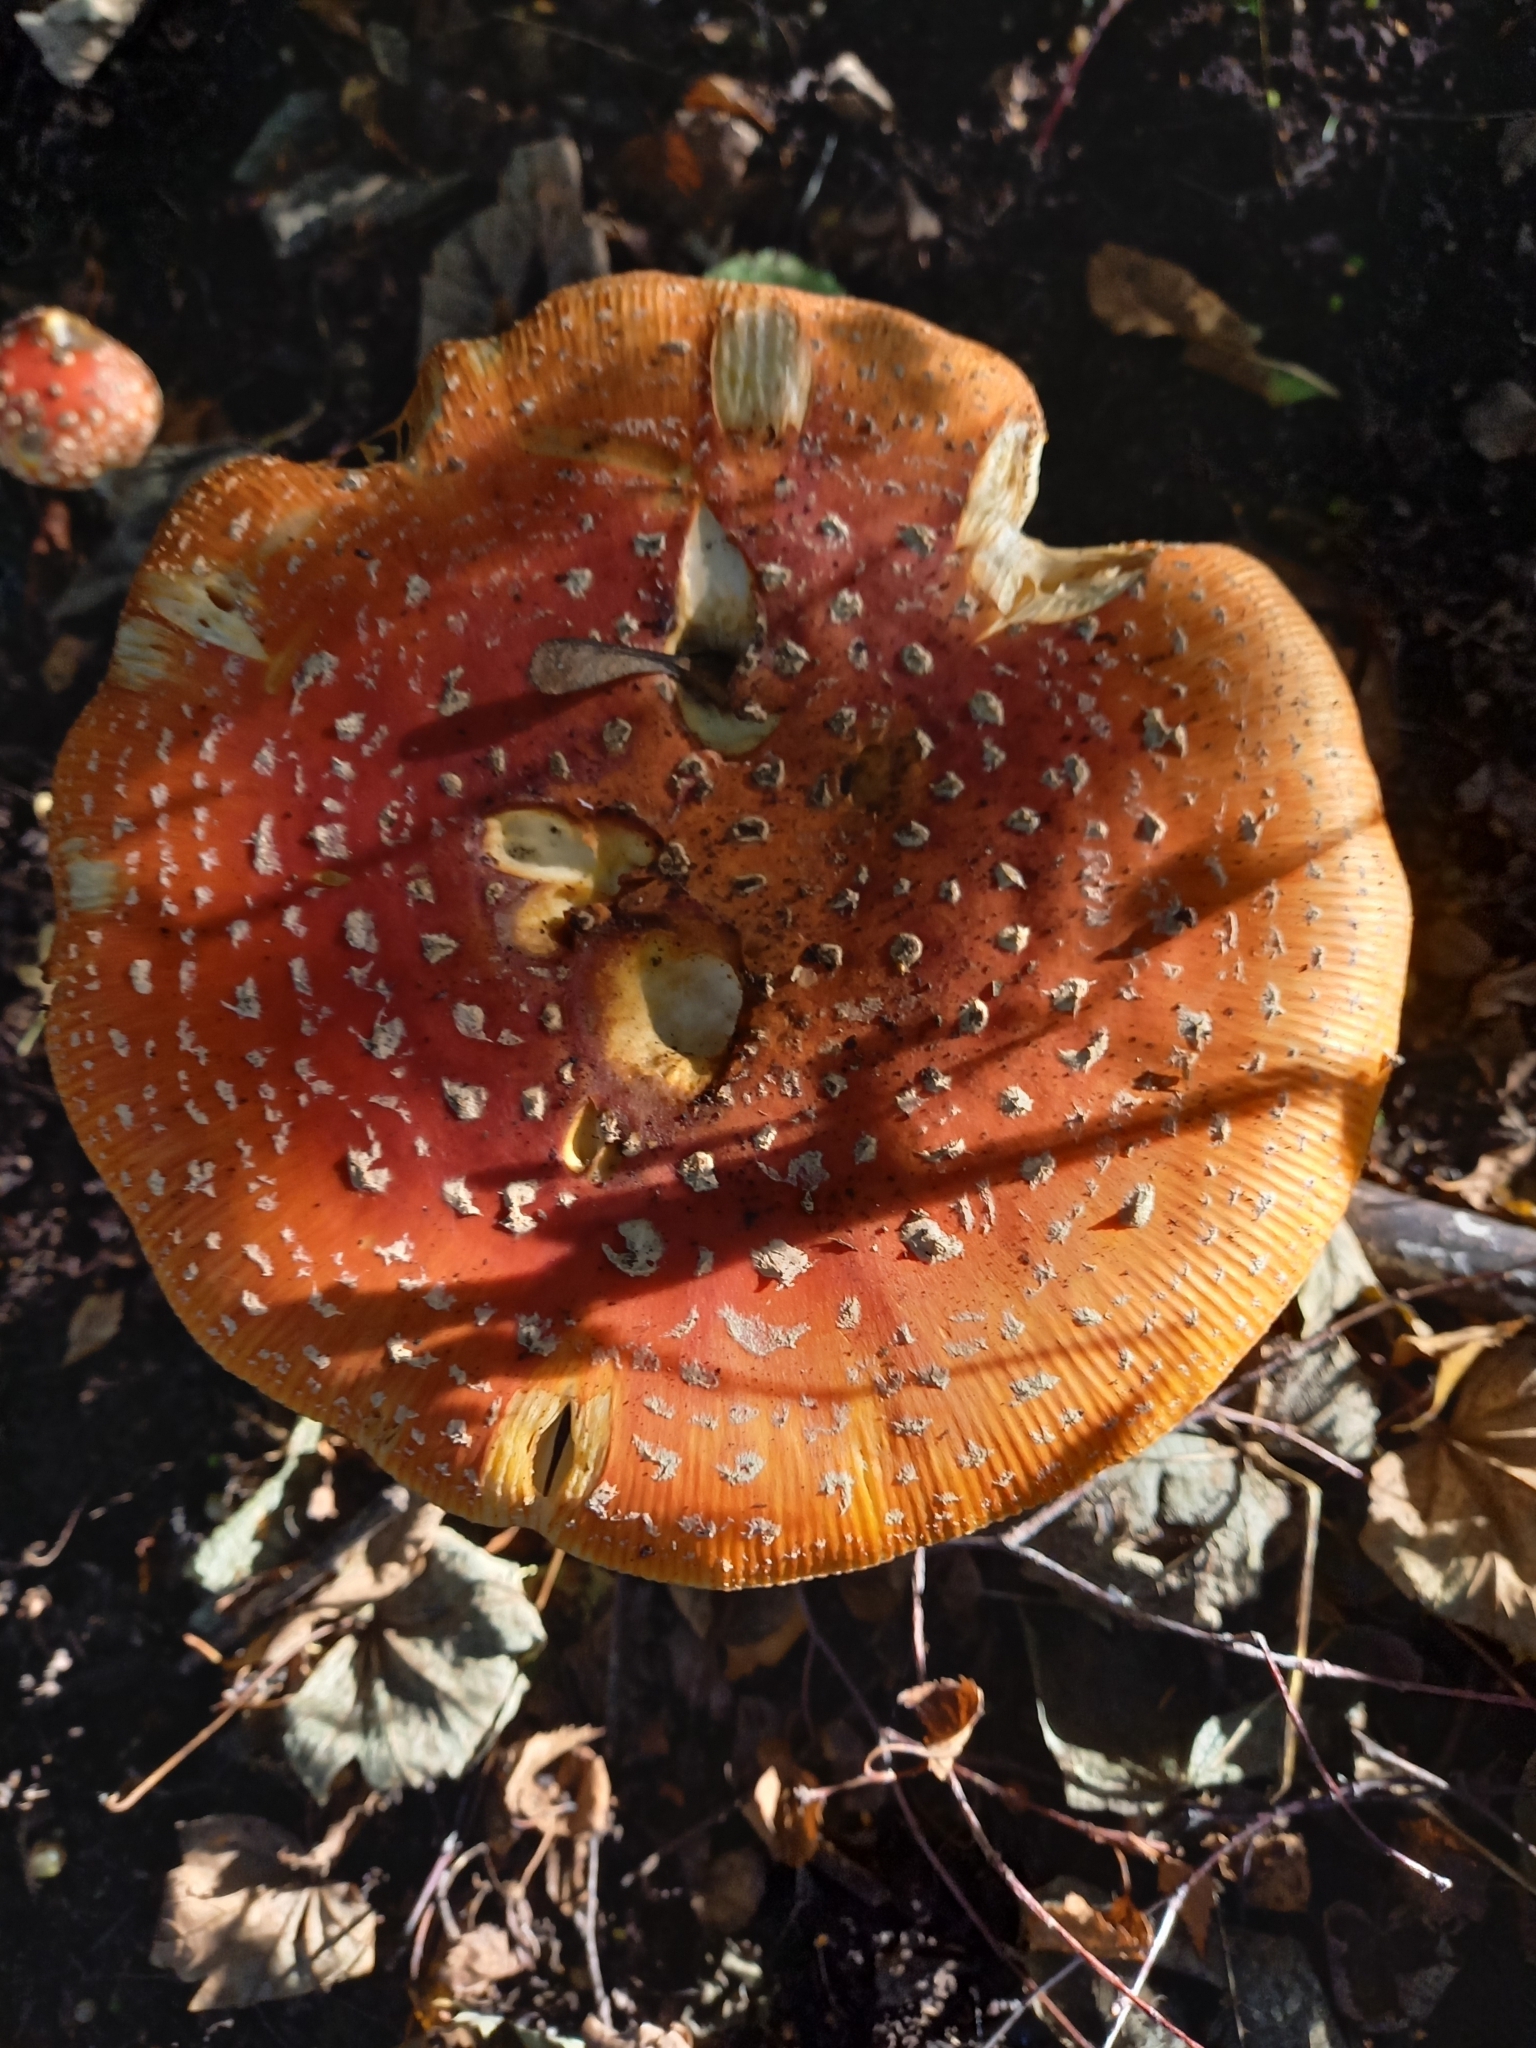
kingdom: Fungi
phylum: Basidiomycota
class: Agaricomycetes
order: Agaricales
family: Amanitaceae
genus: Amanita
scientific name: Amanita muscaria
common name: Fly agaric
